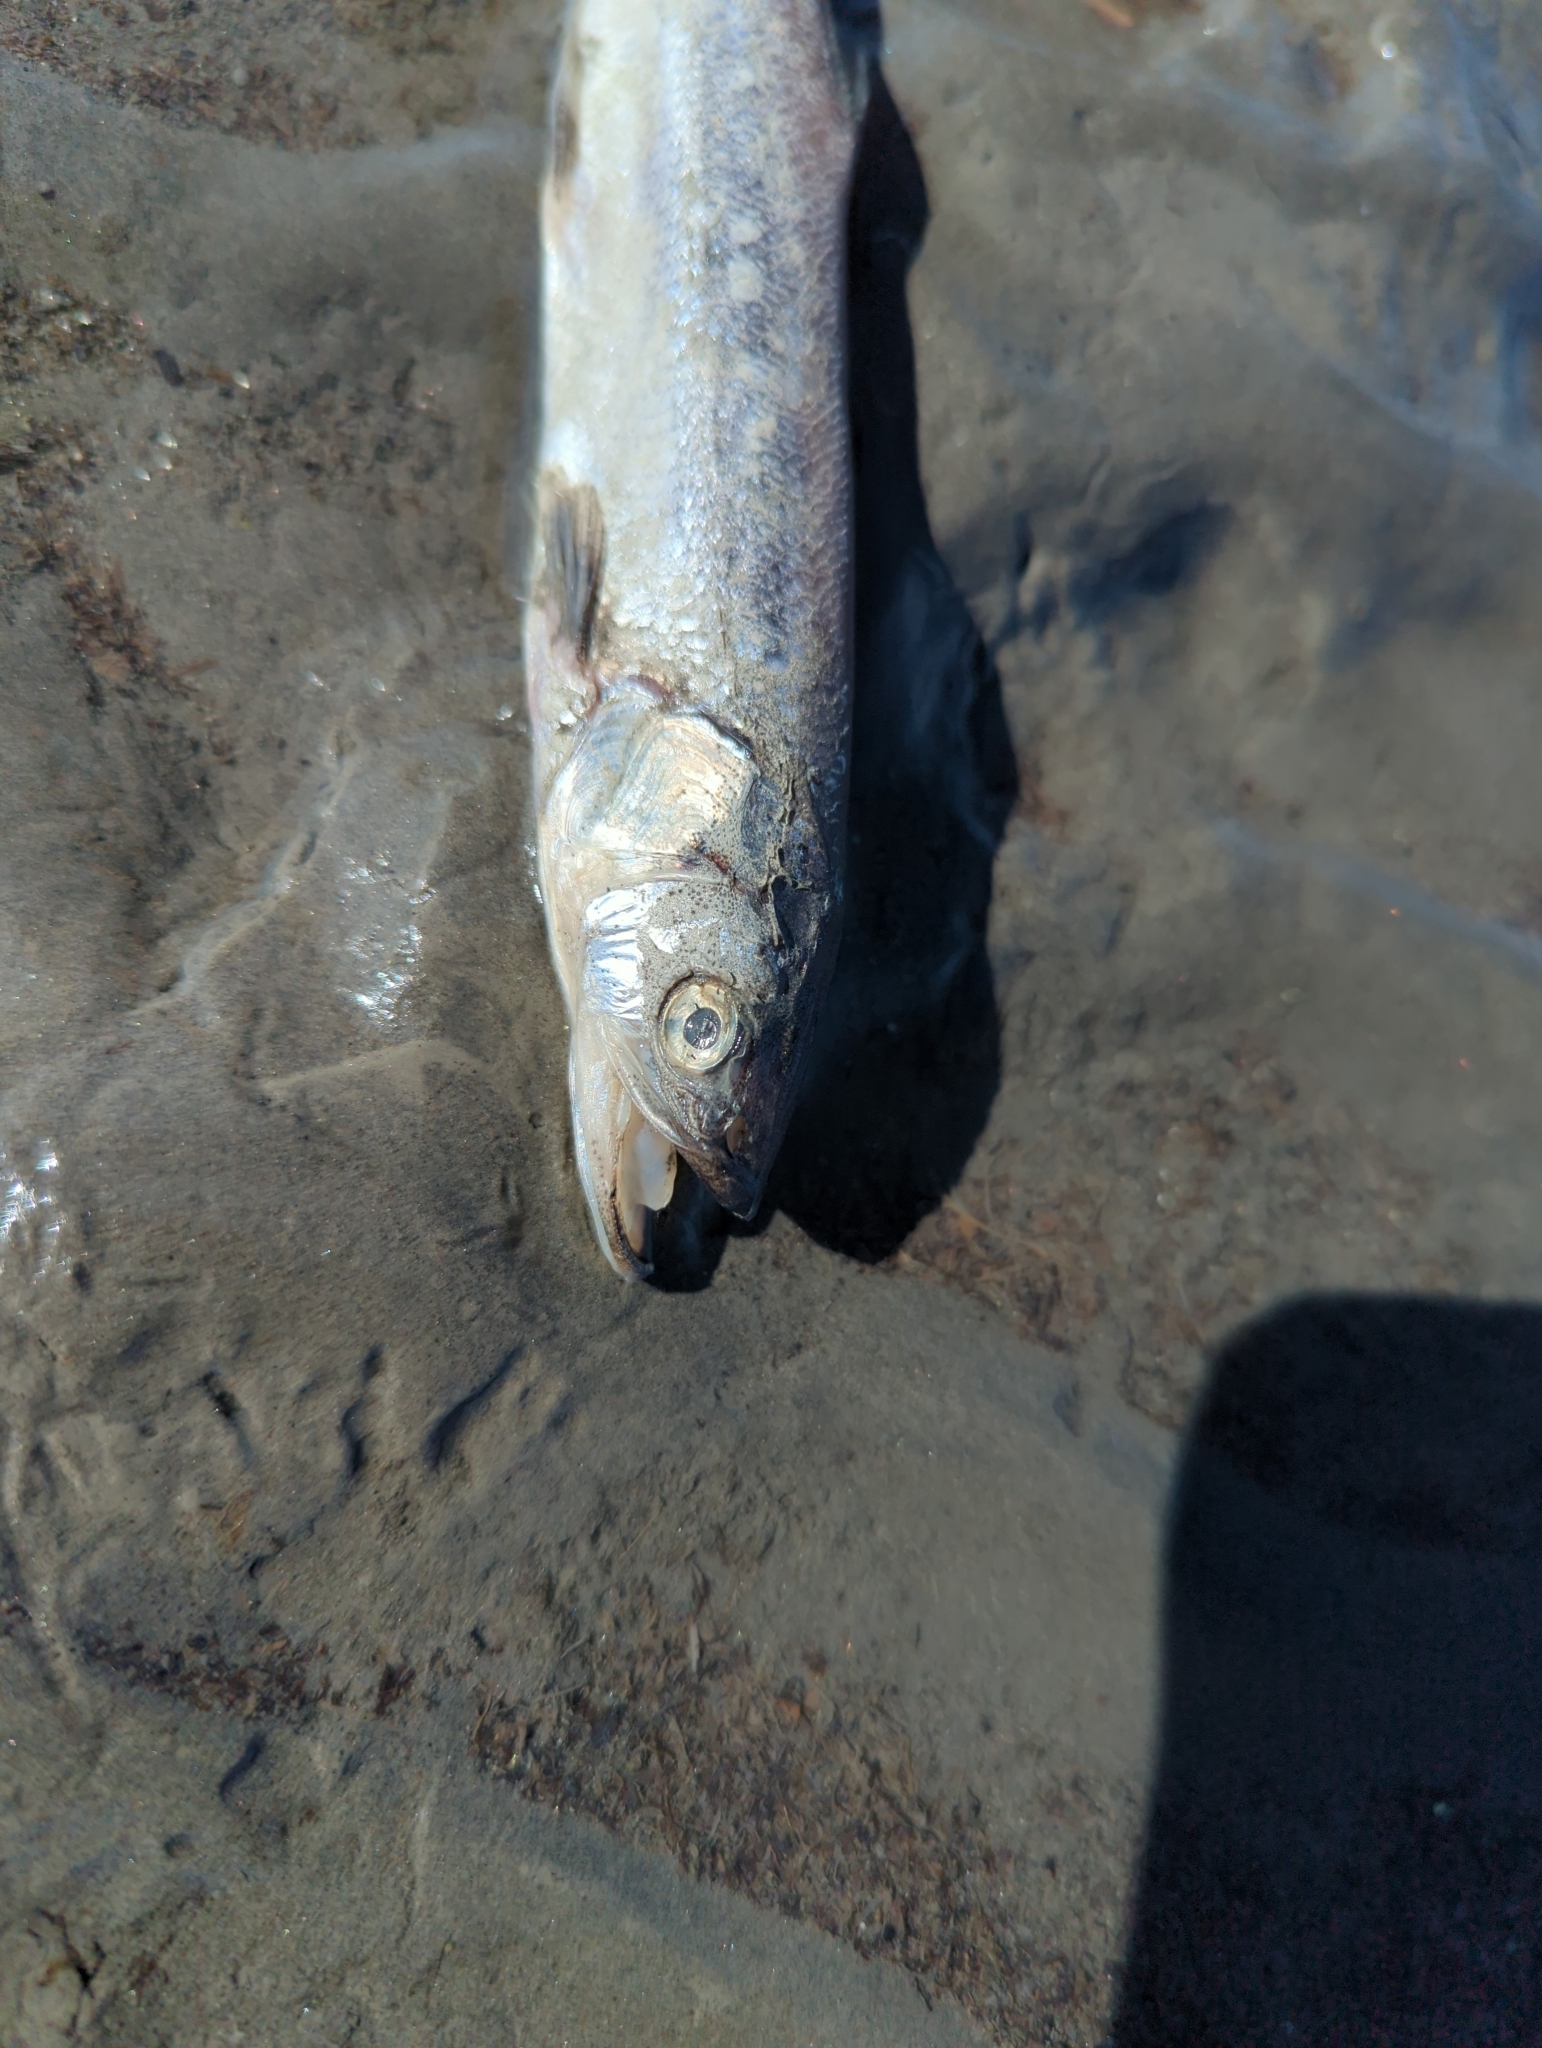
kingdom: Animalia
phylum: Chordata
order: Osmeriformes
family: Osmeridae
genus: Thaleichthys
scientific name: Thaleichthys pacificus
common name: Eulachon
